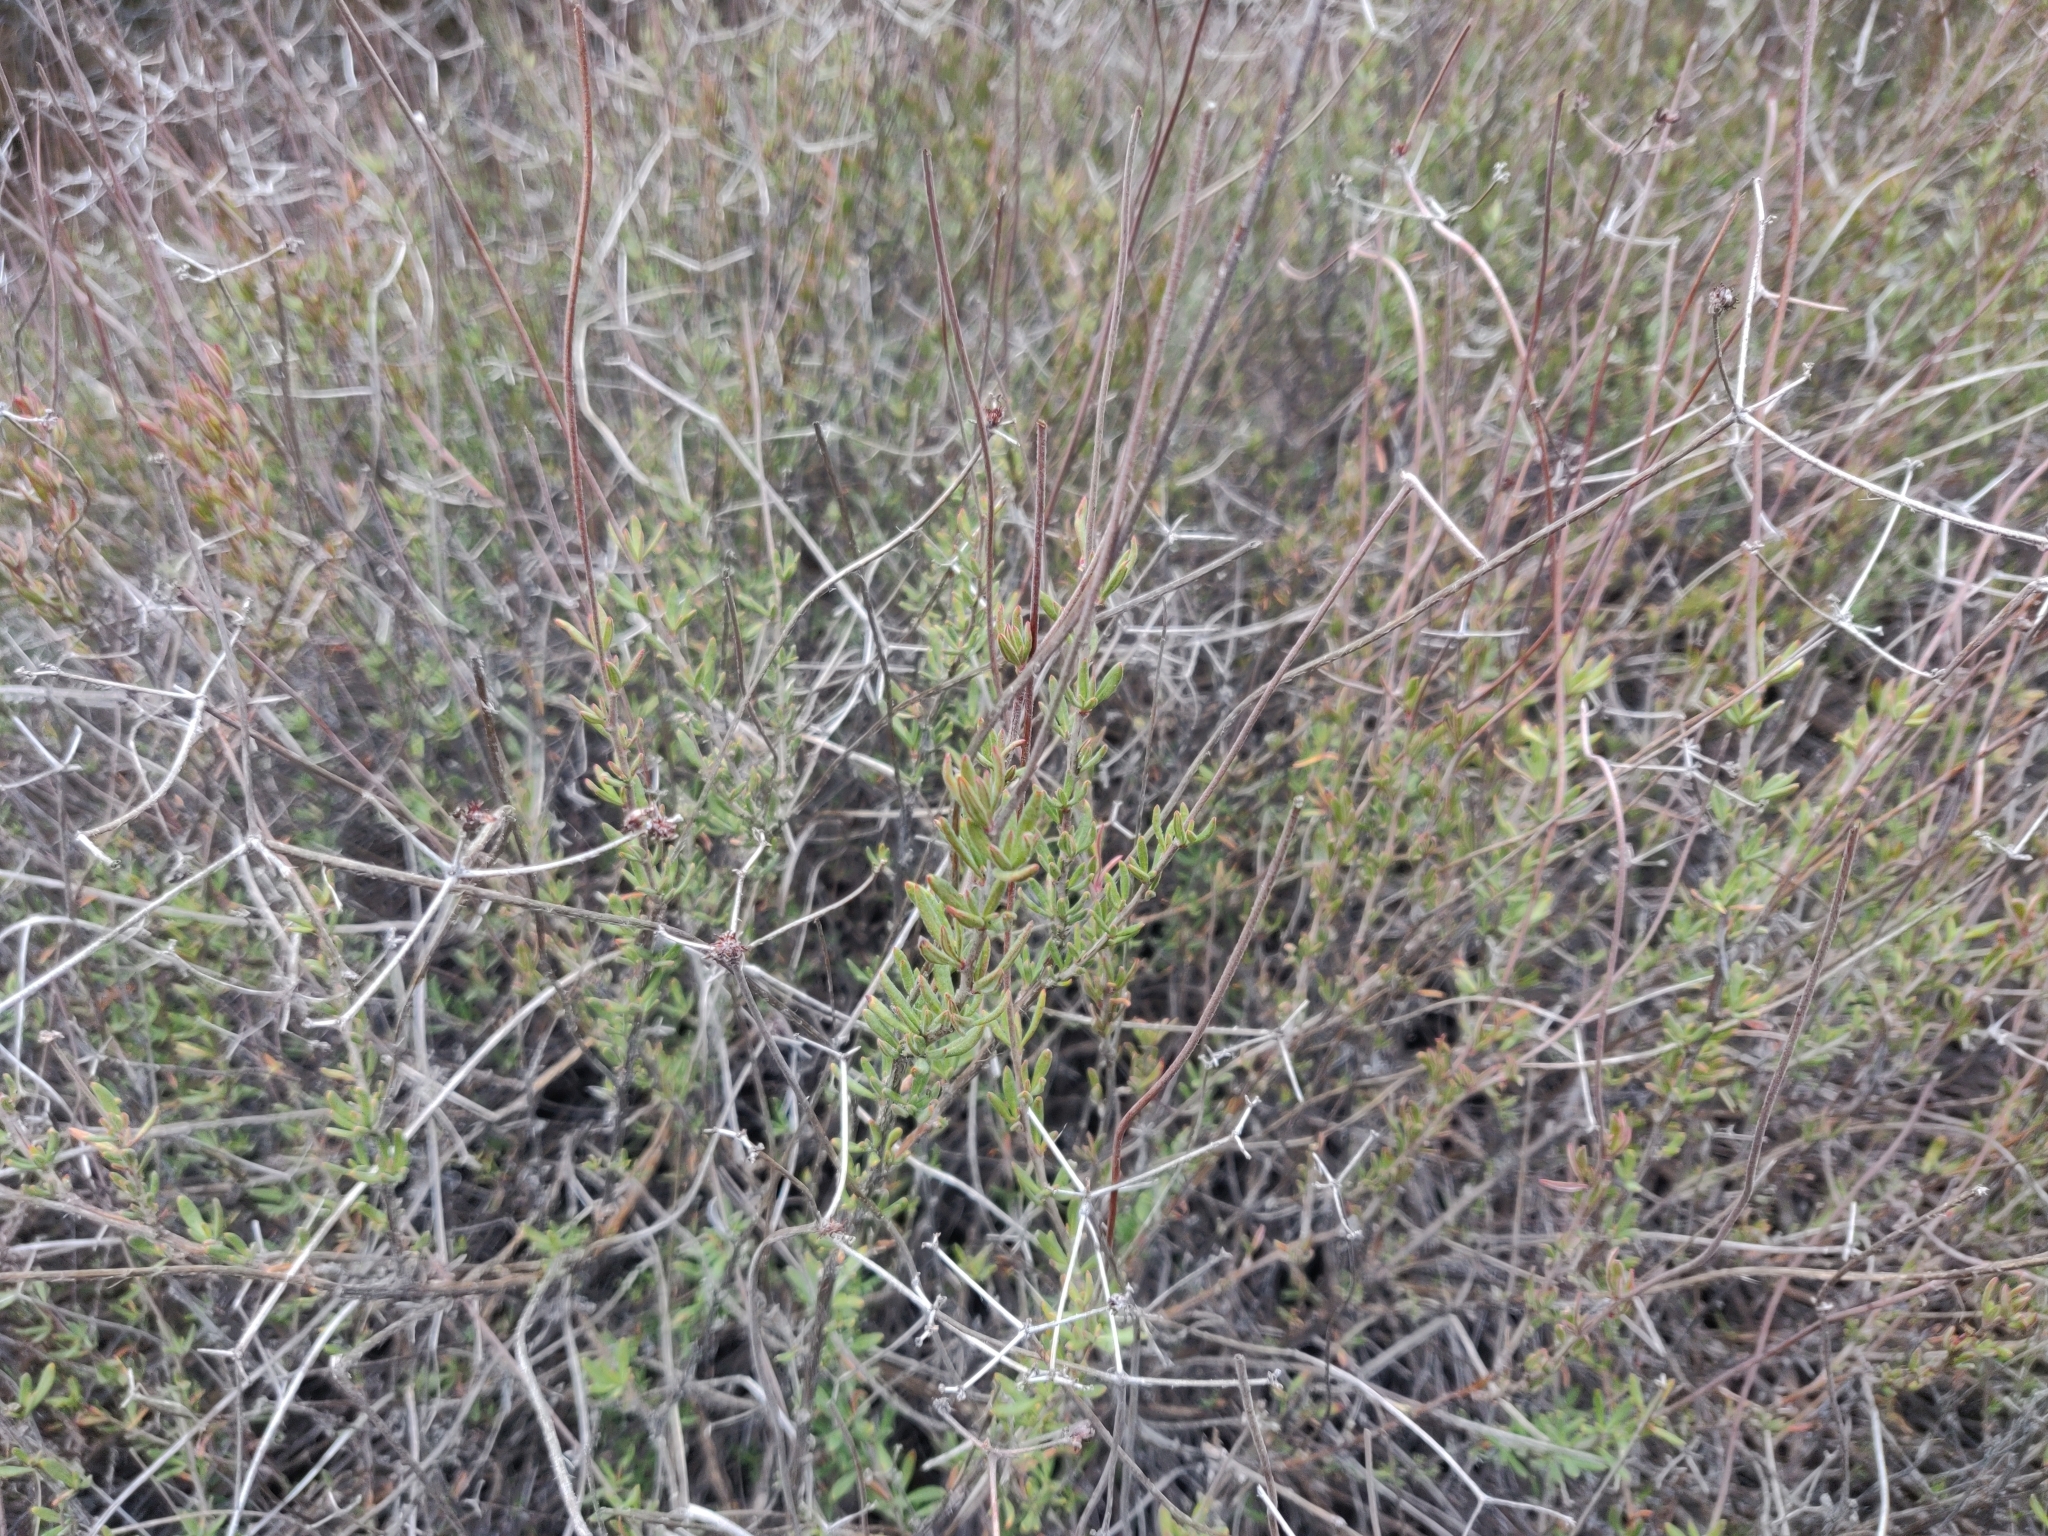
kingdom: Plantae
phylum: Tracheophyta
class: Magnoliopsida
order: Caryophyllales
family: Polygonaceae
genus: Eriogonum
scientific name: Eriogonum fasciculatum
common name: California wild buckwheat
